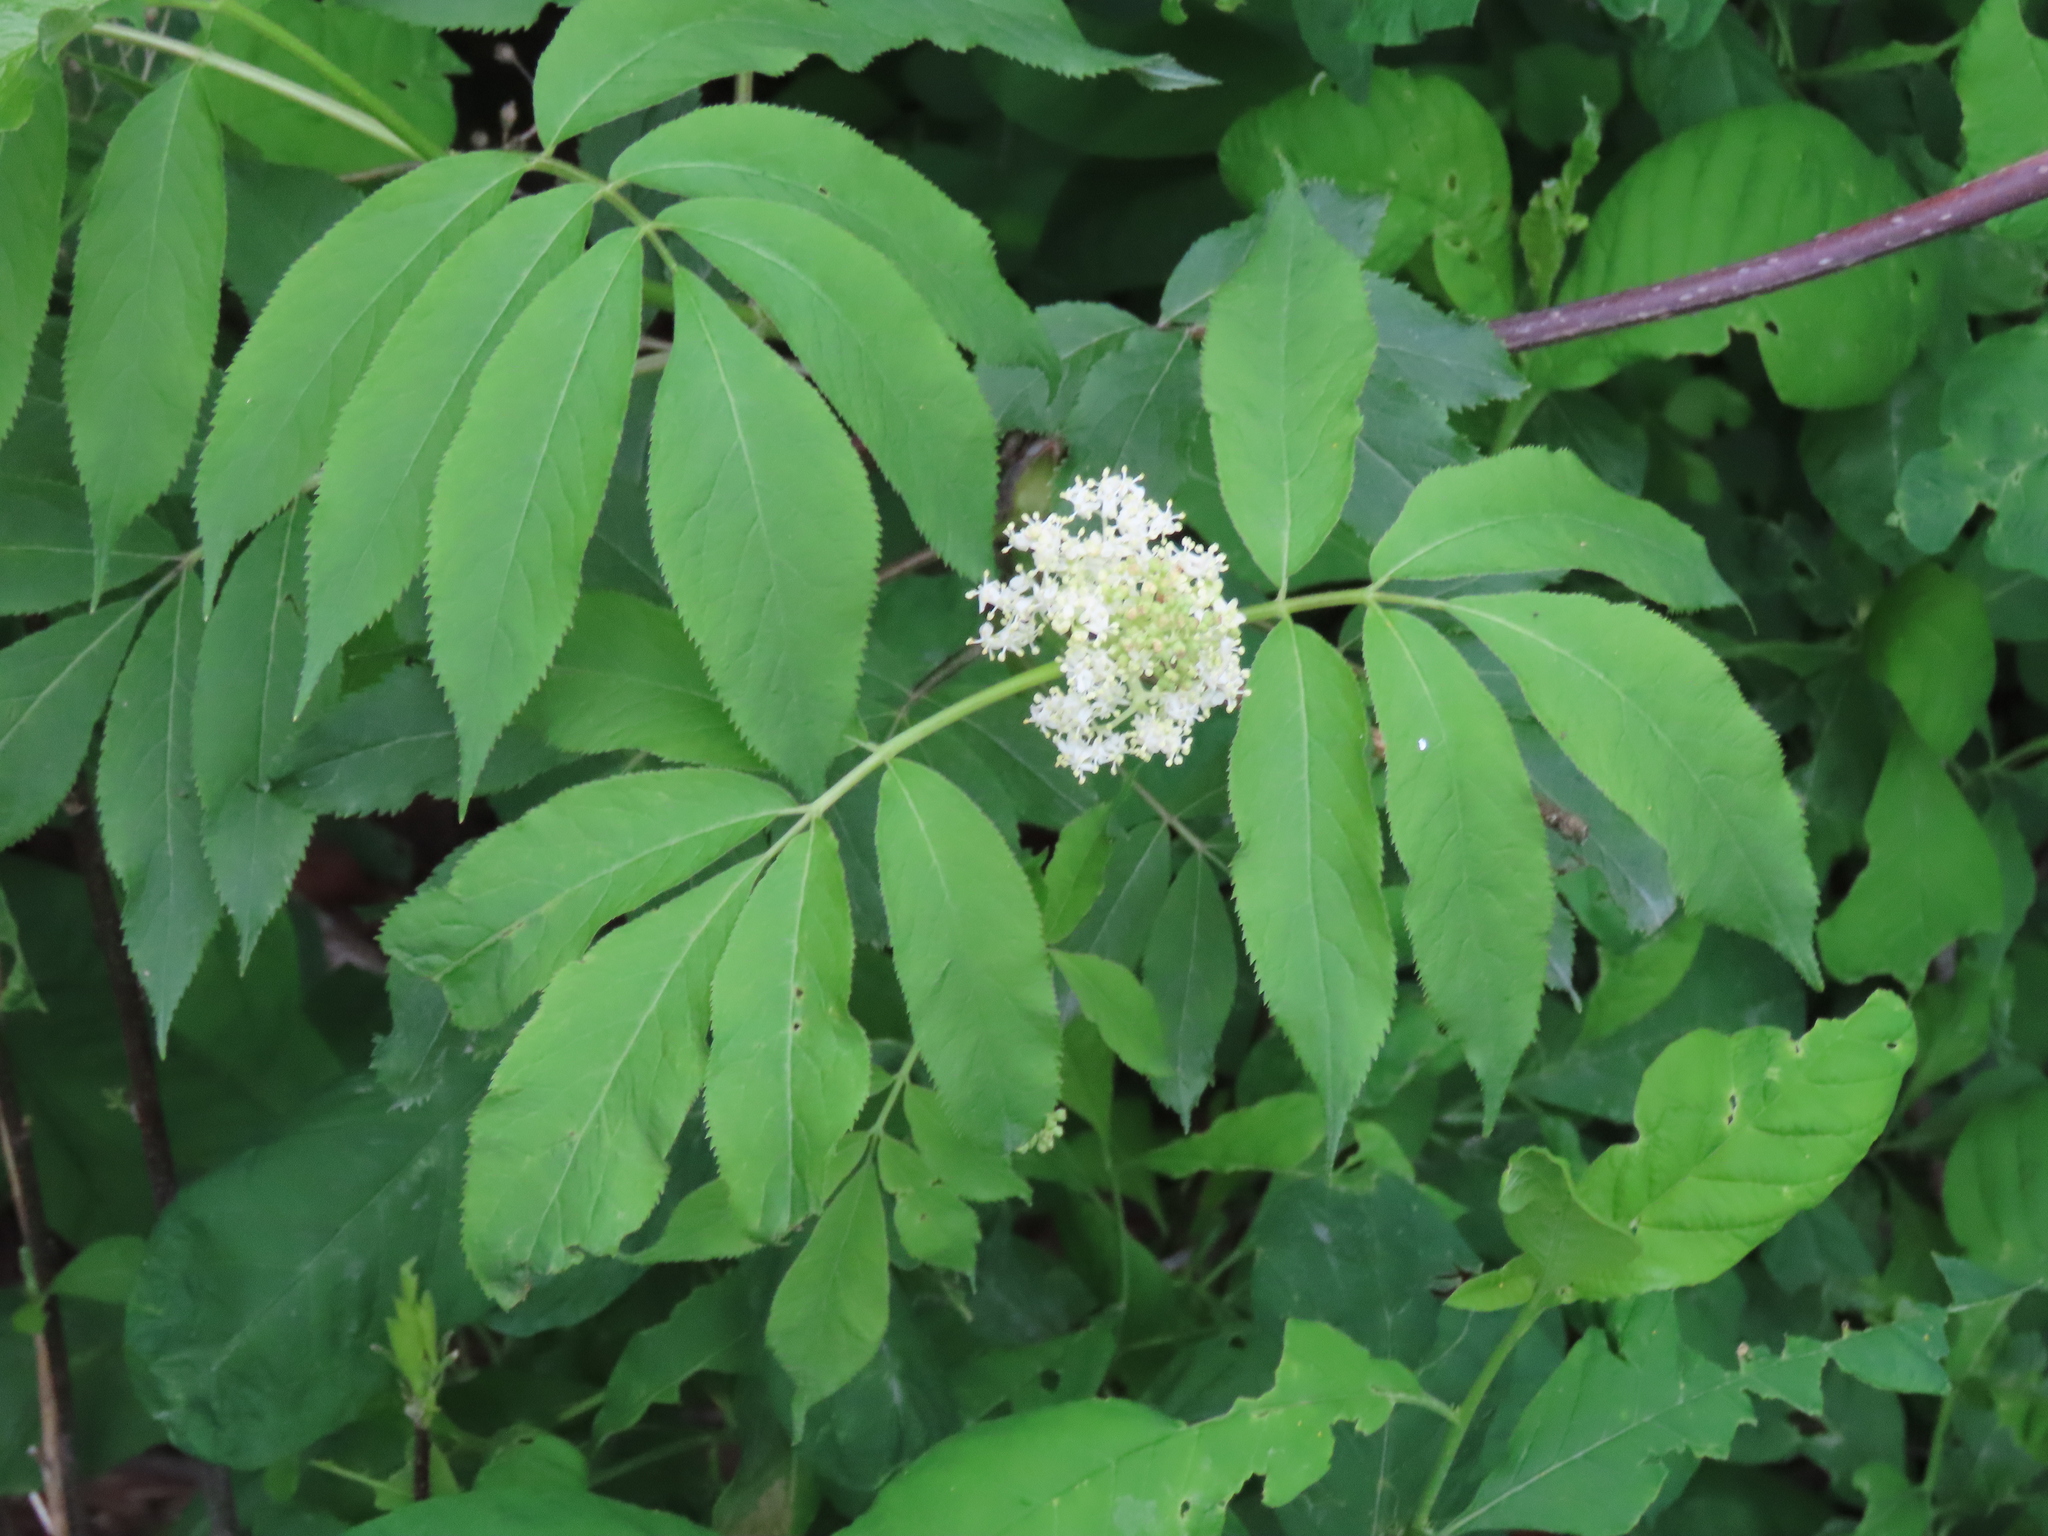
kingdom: Plantae
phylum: Tracheophyta
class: Magnoliopsida
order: Dipsacales
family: Viburnaceae
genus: Sambucus
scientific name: Sambucus racemosa
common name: Red-berried elder
